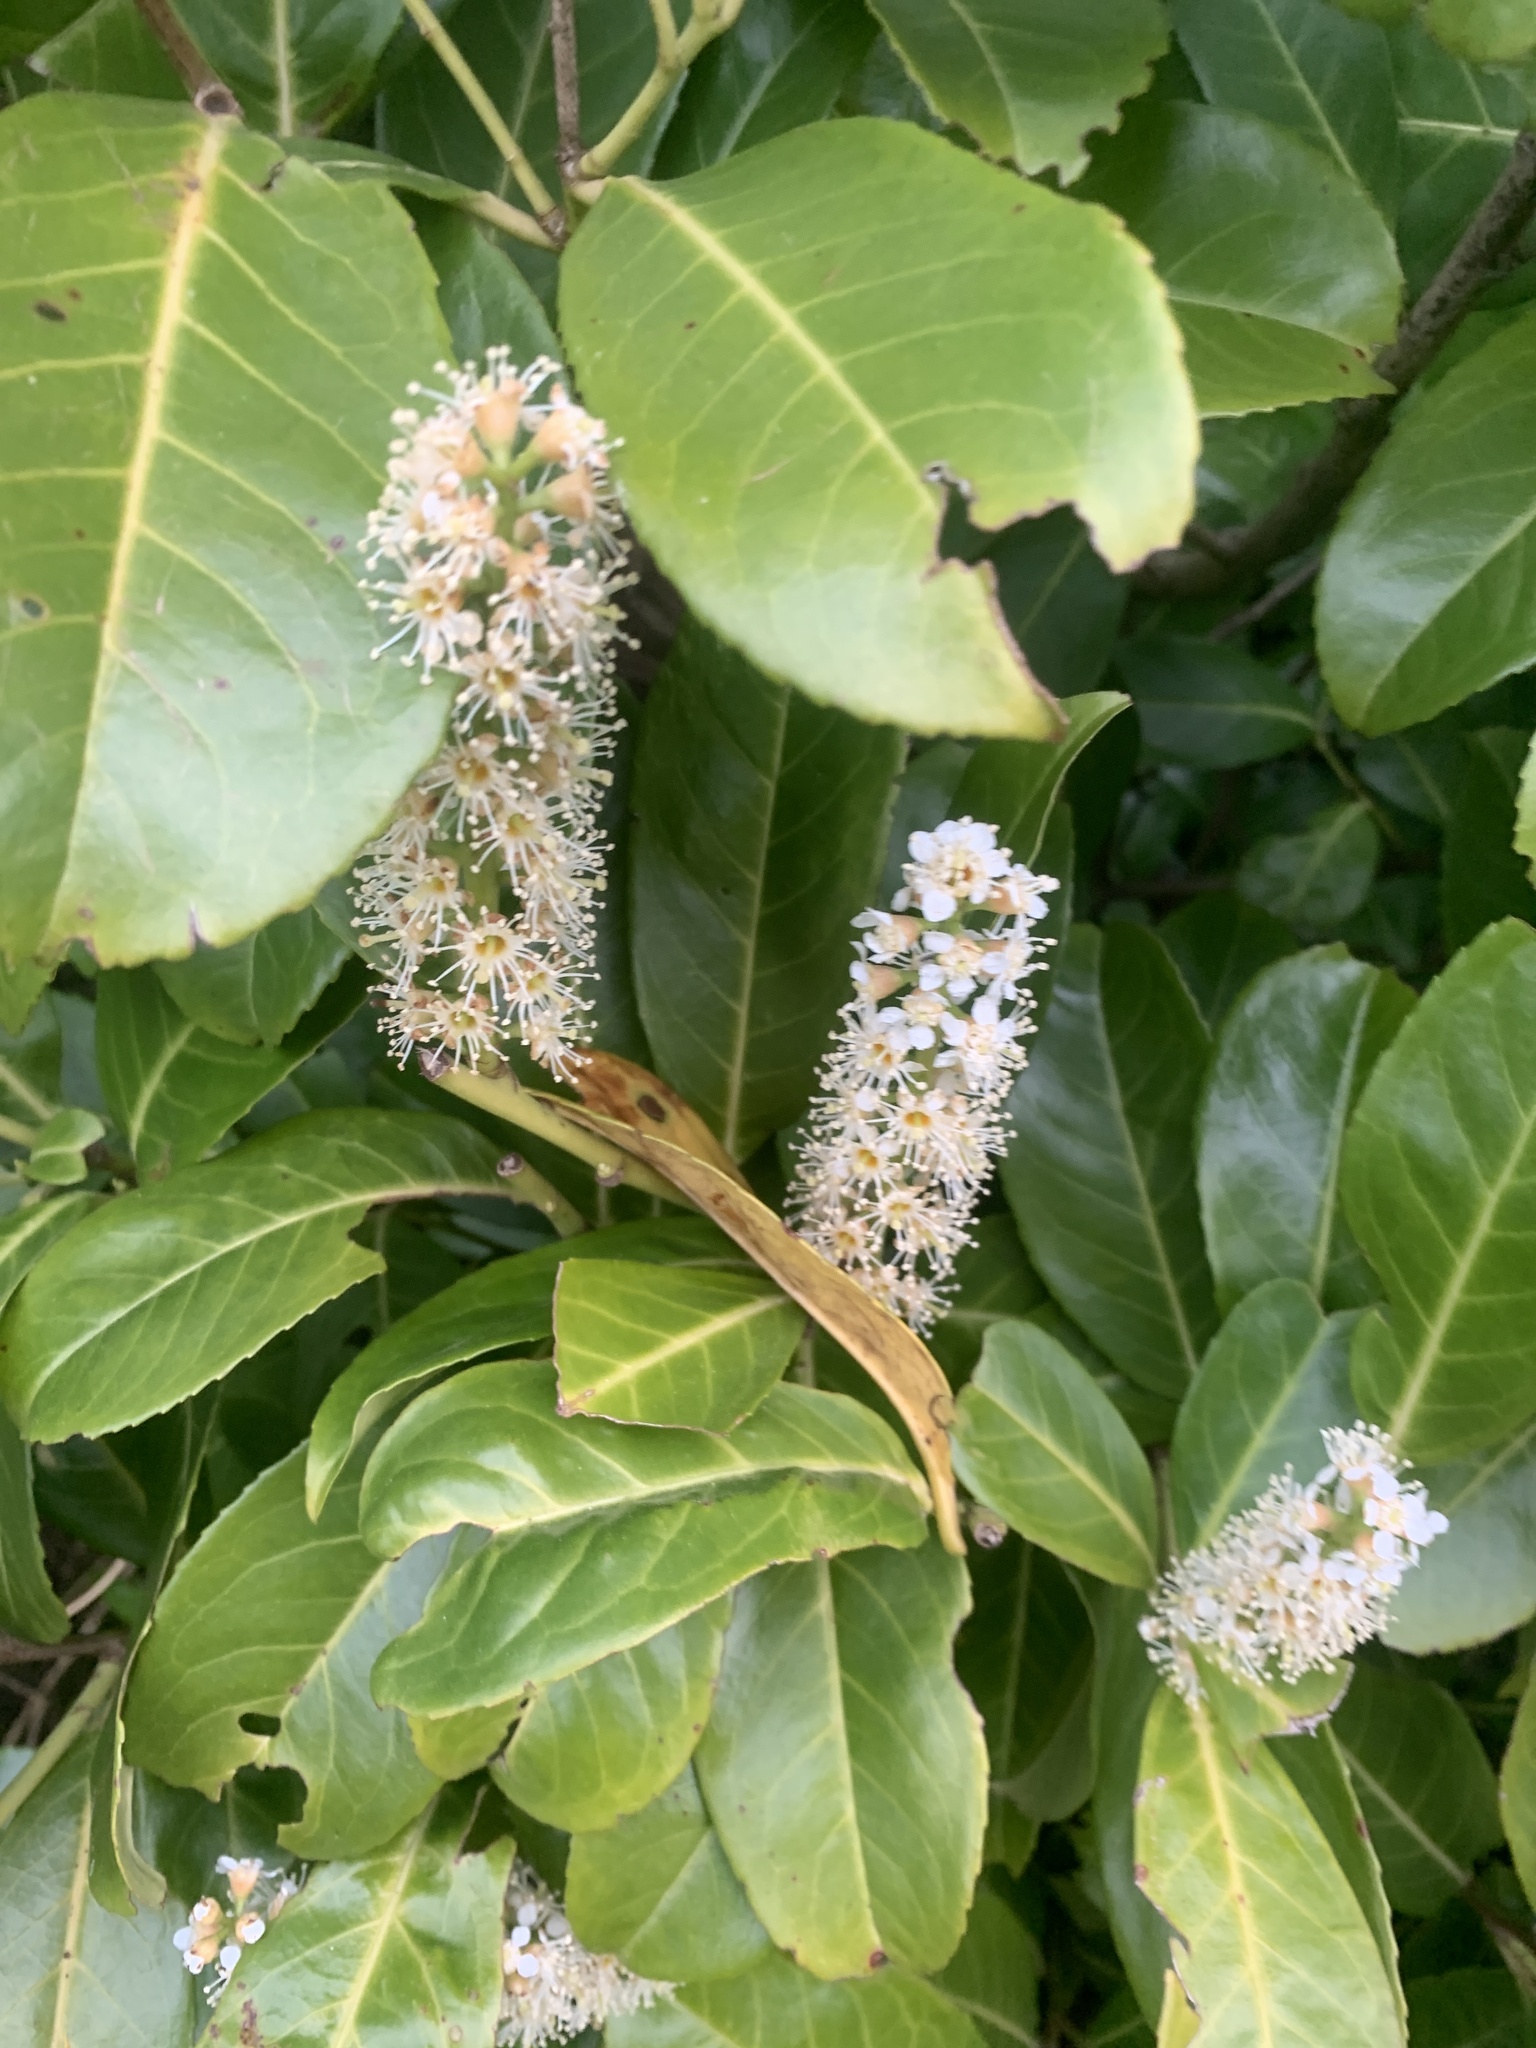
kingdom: Plantae
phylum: Tracheophyta
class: Magnoliopsida
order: Rosales
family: Rosaceae
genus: Prunus
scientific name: Prunus laurocerasus
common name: Cherry laurel
